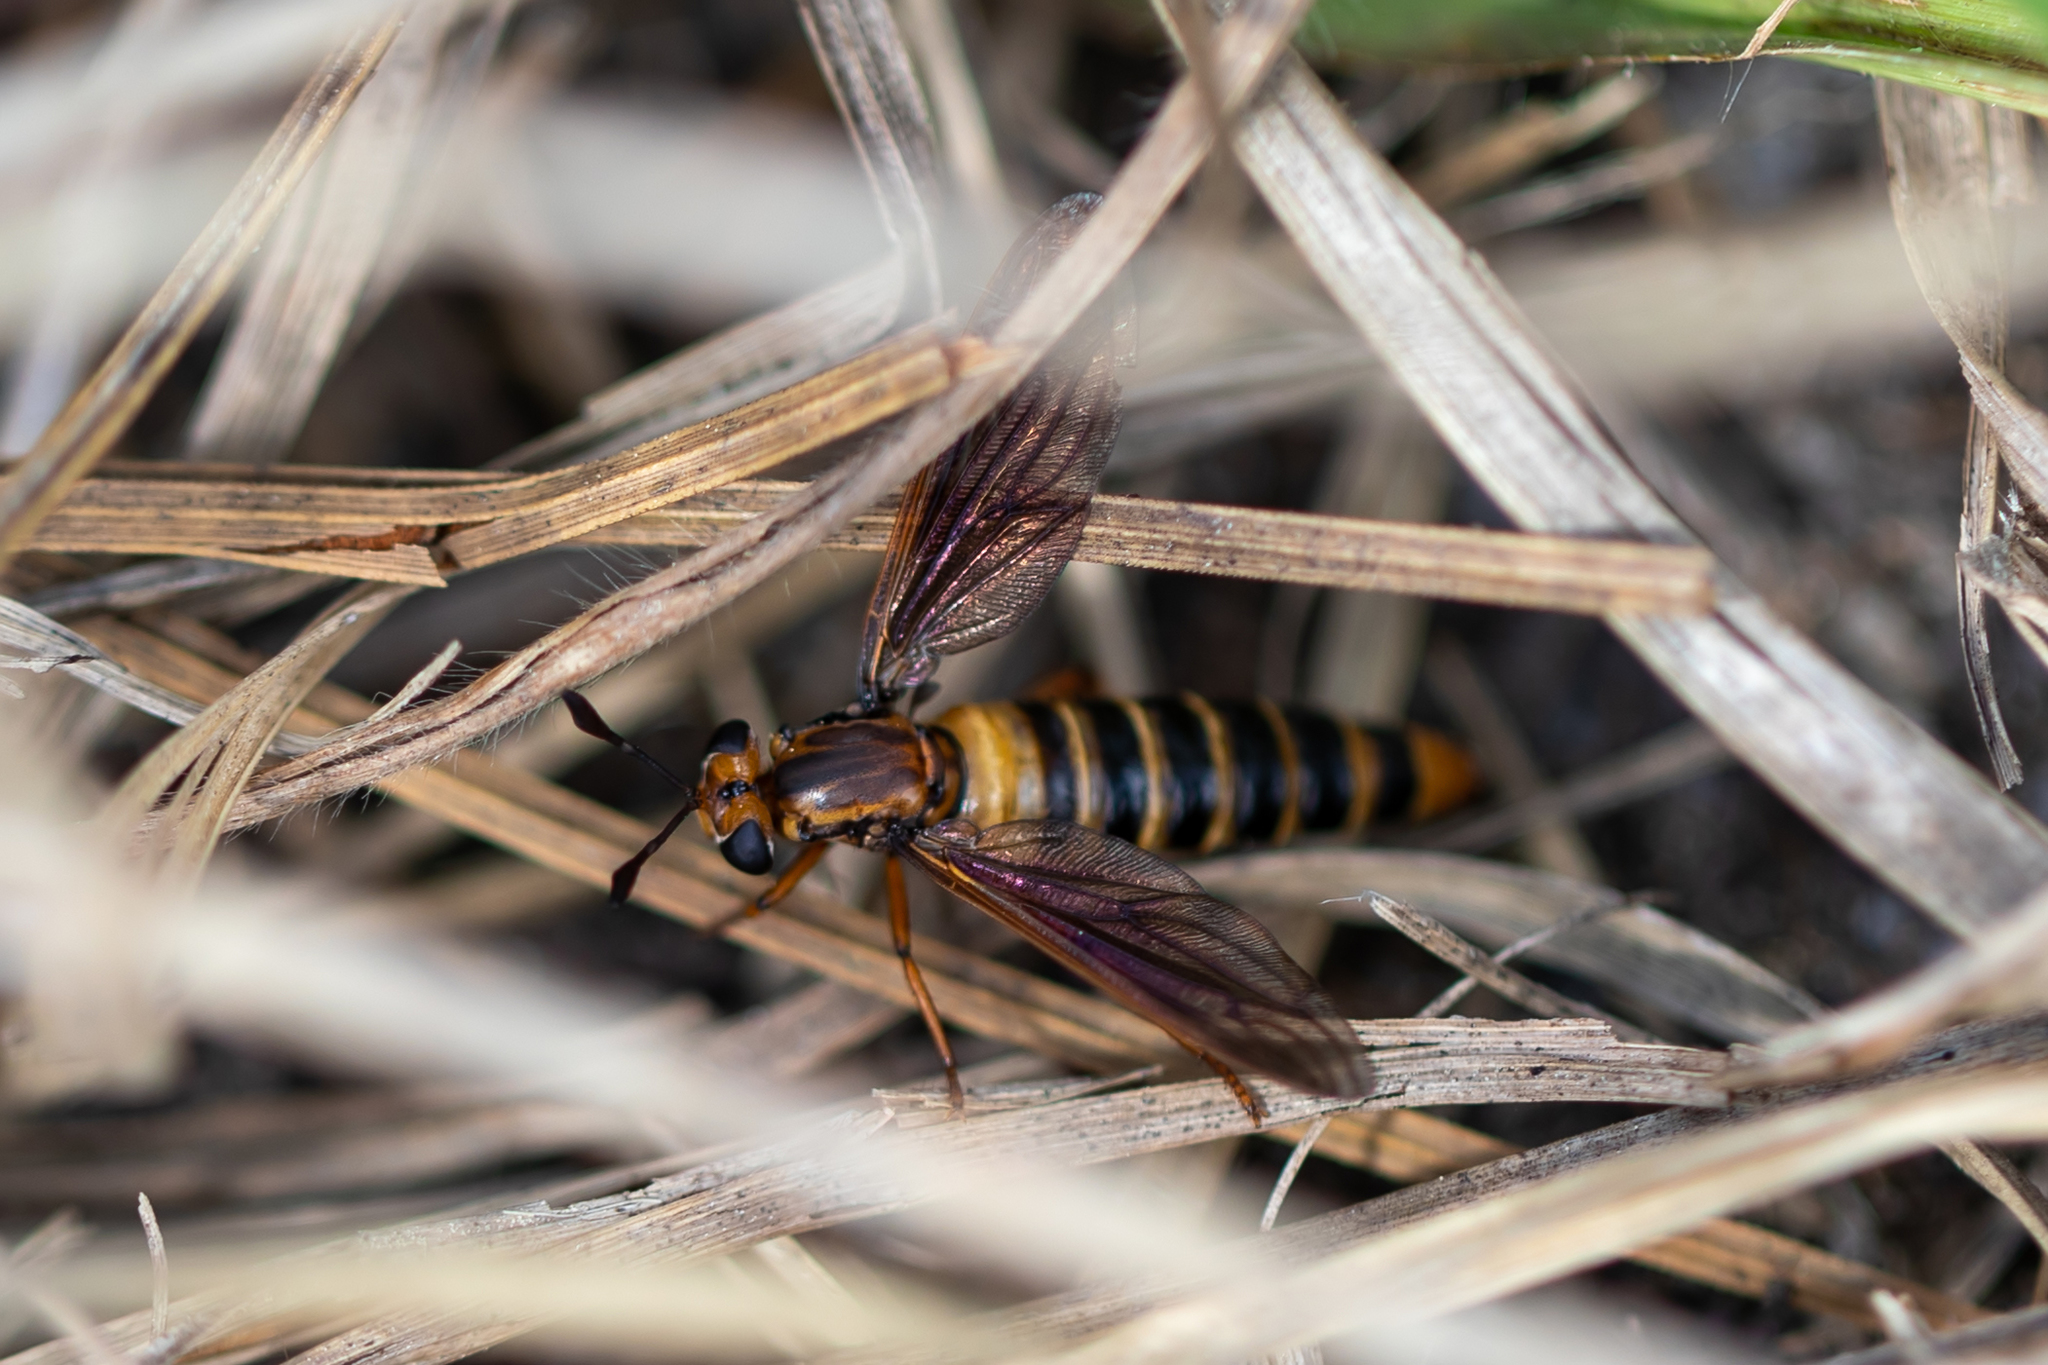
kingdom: Animalia
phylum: Arthropoda
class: Insecta
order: Diptera
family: Mydidae
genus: Phyllomydas
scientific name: Phyllomydas parvulus
